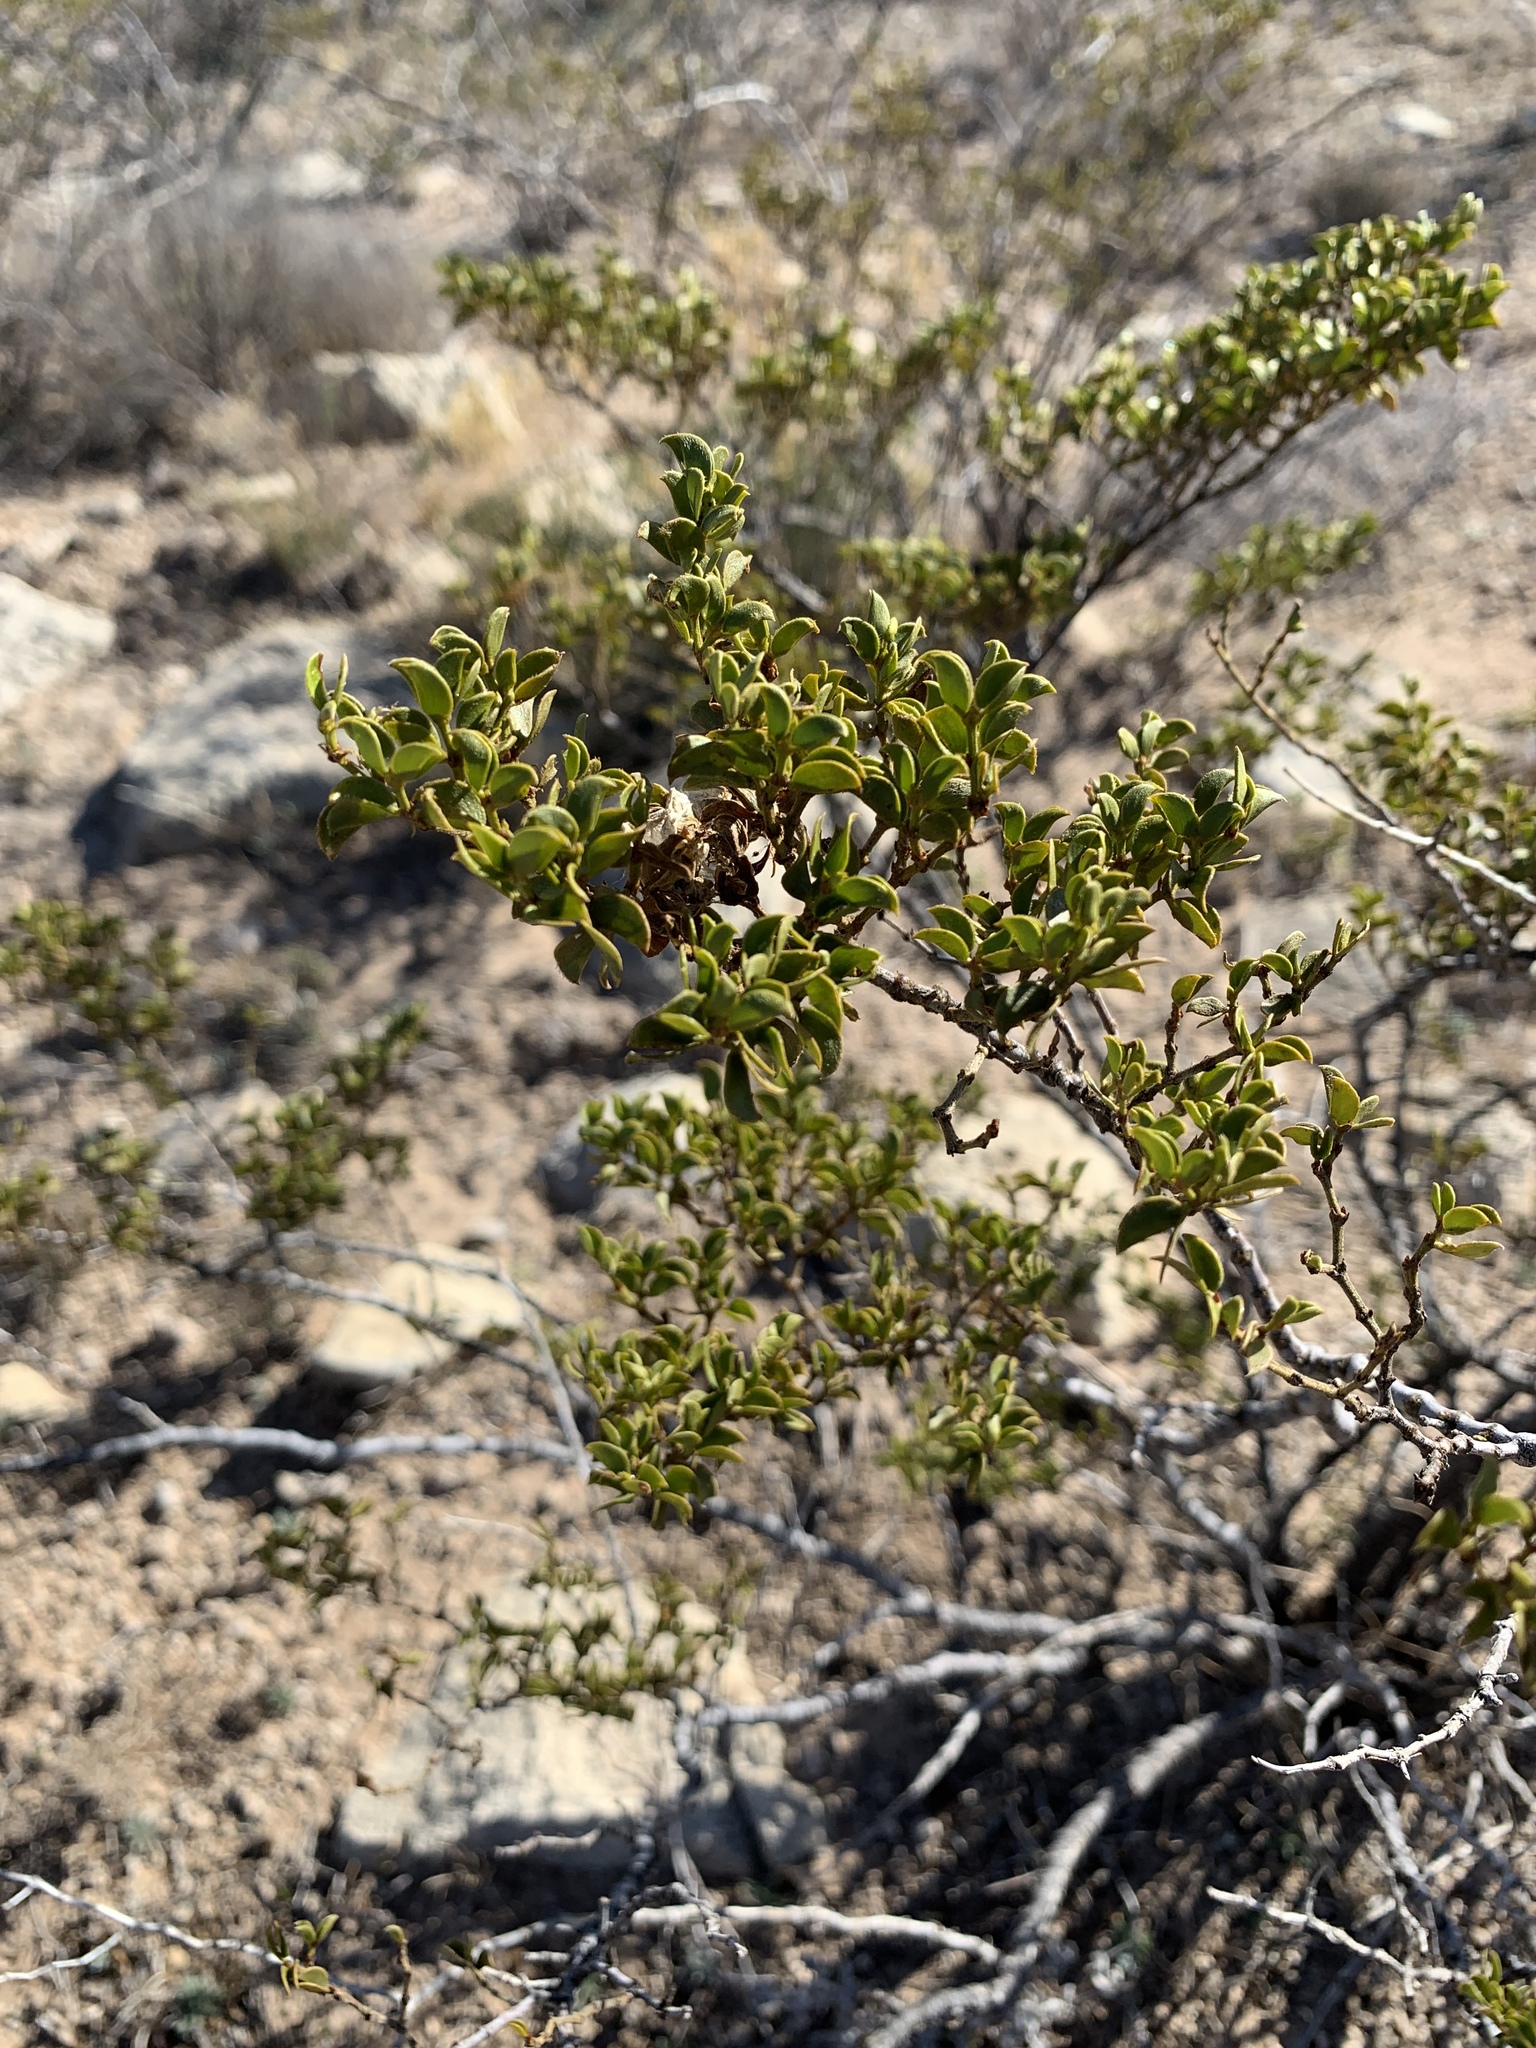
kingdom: Plantae
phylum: Tracheophyta
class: Magnoliopsida
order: Zygophyllales
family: Zygophyllaceae
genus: Larrea
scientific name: Larrea tridentata
